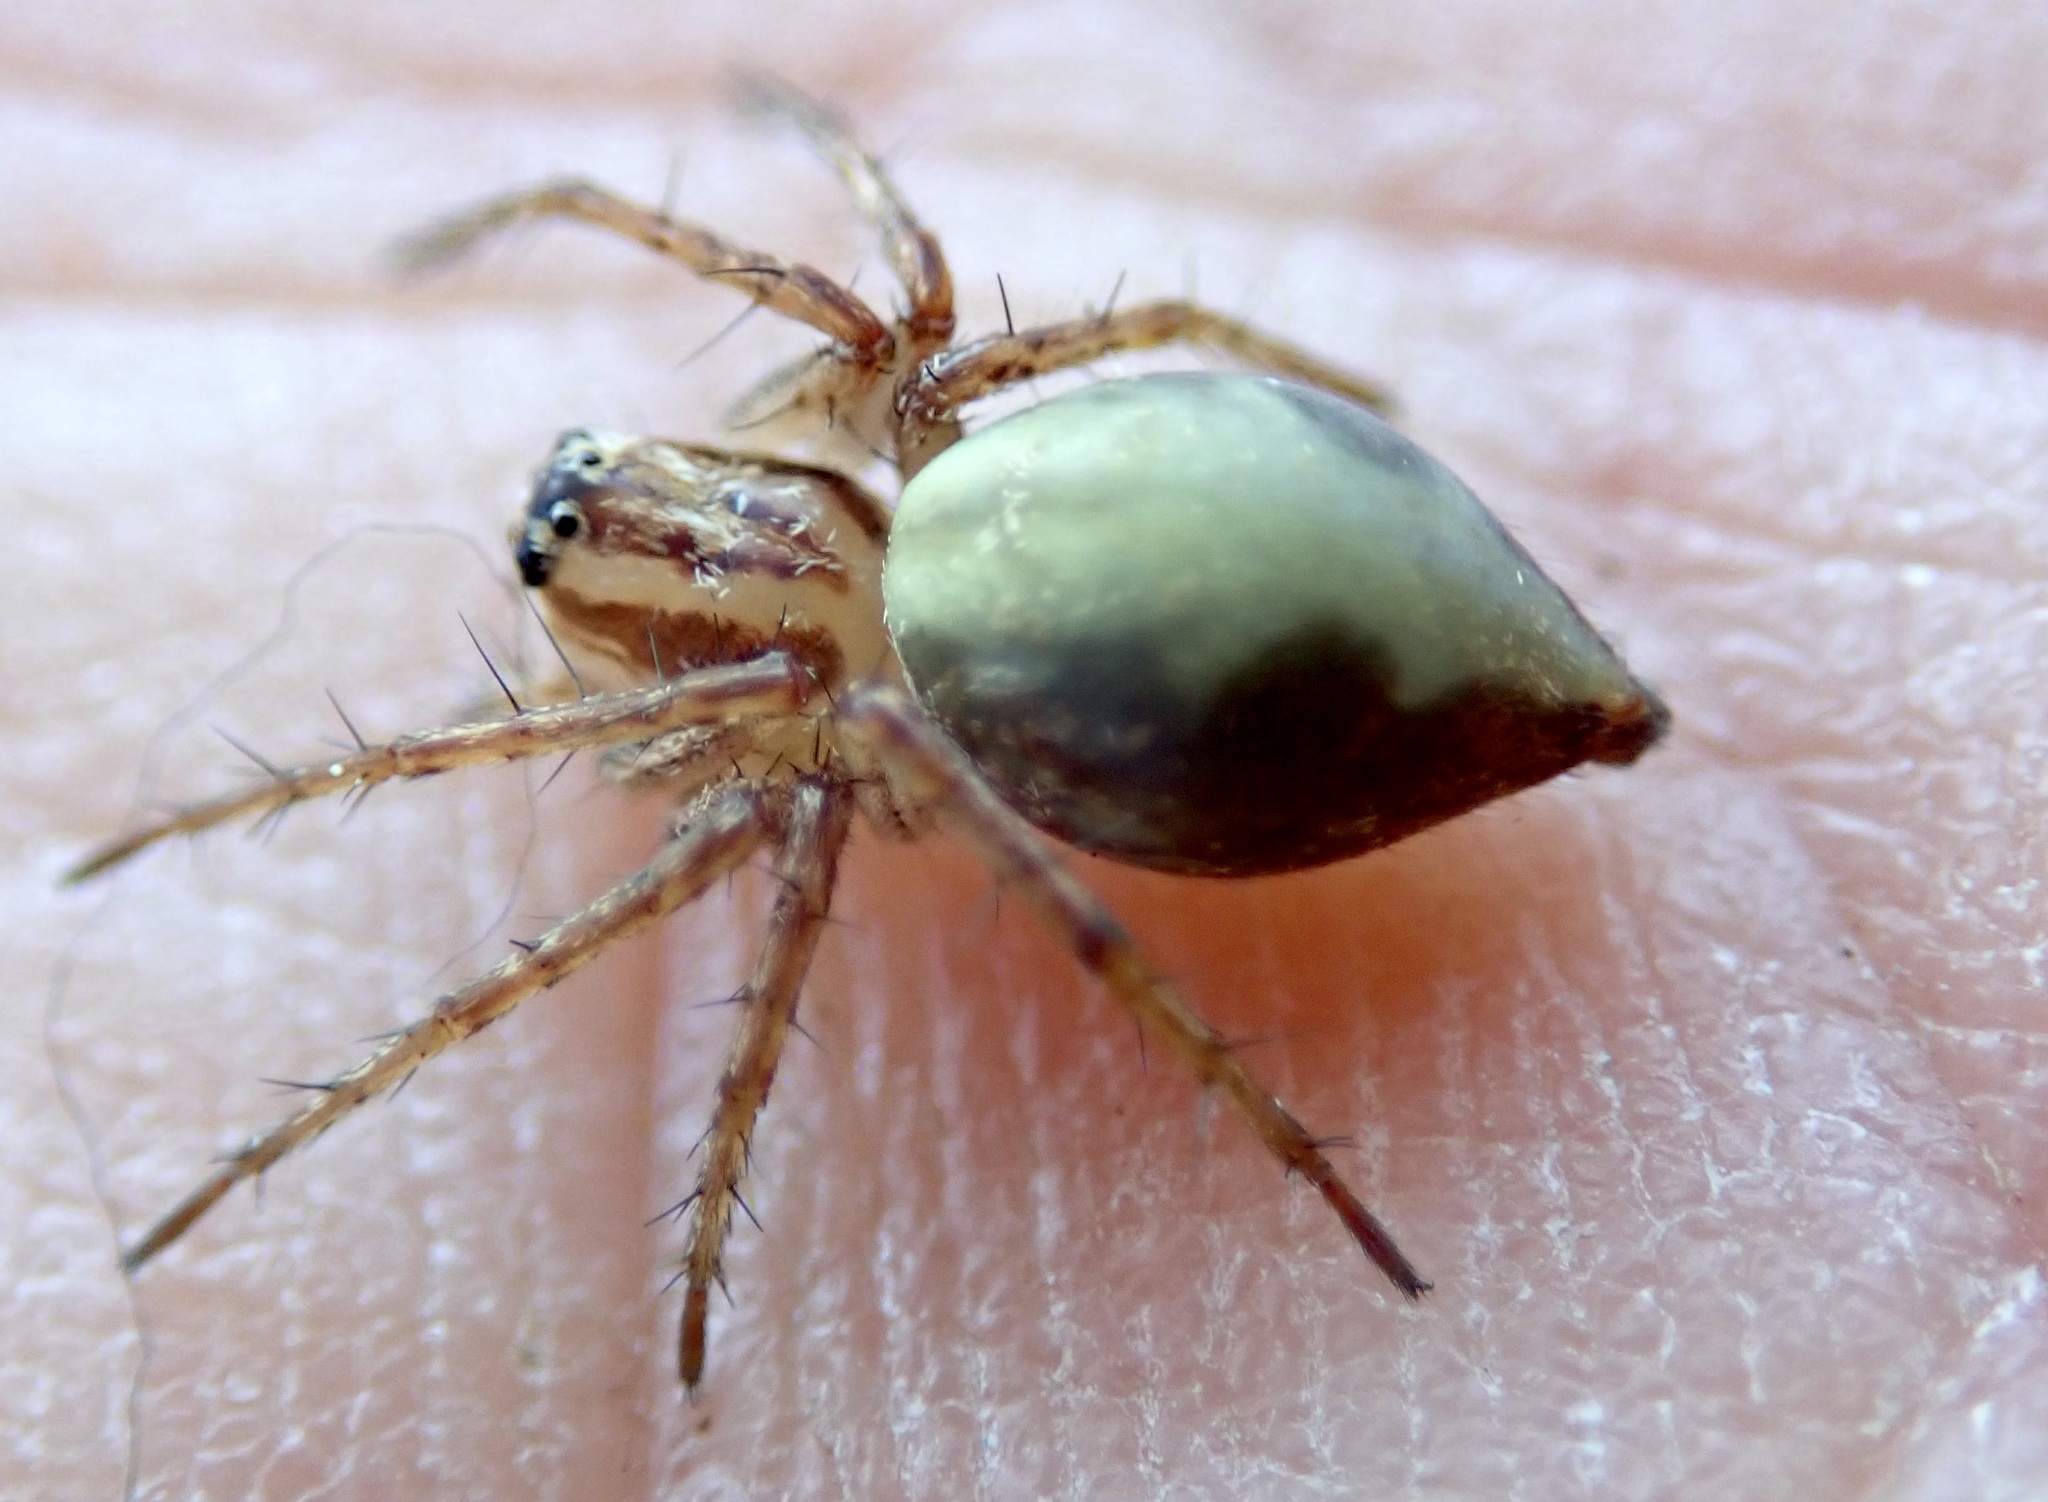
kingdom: Animalia
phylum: Arthropoda
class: Arachnida
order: Araneae
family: Oxyopidae
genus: Oxyopes
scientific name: Oxyopes gracilipes
